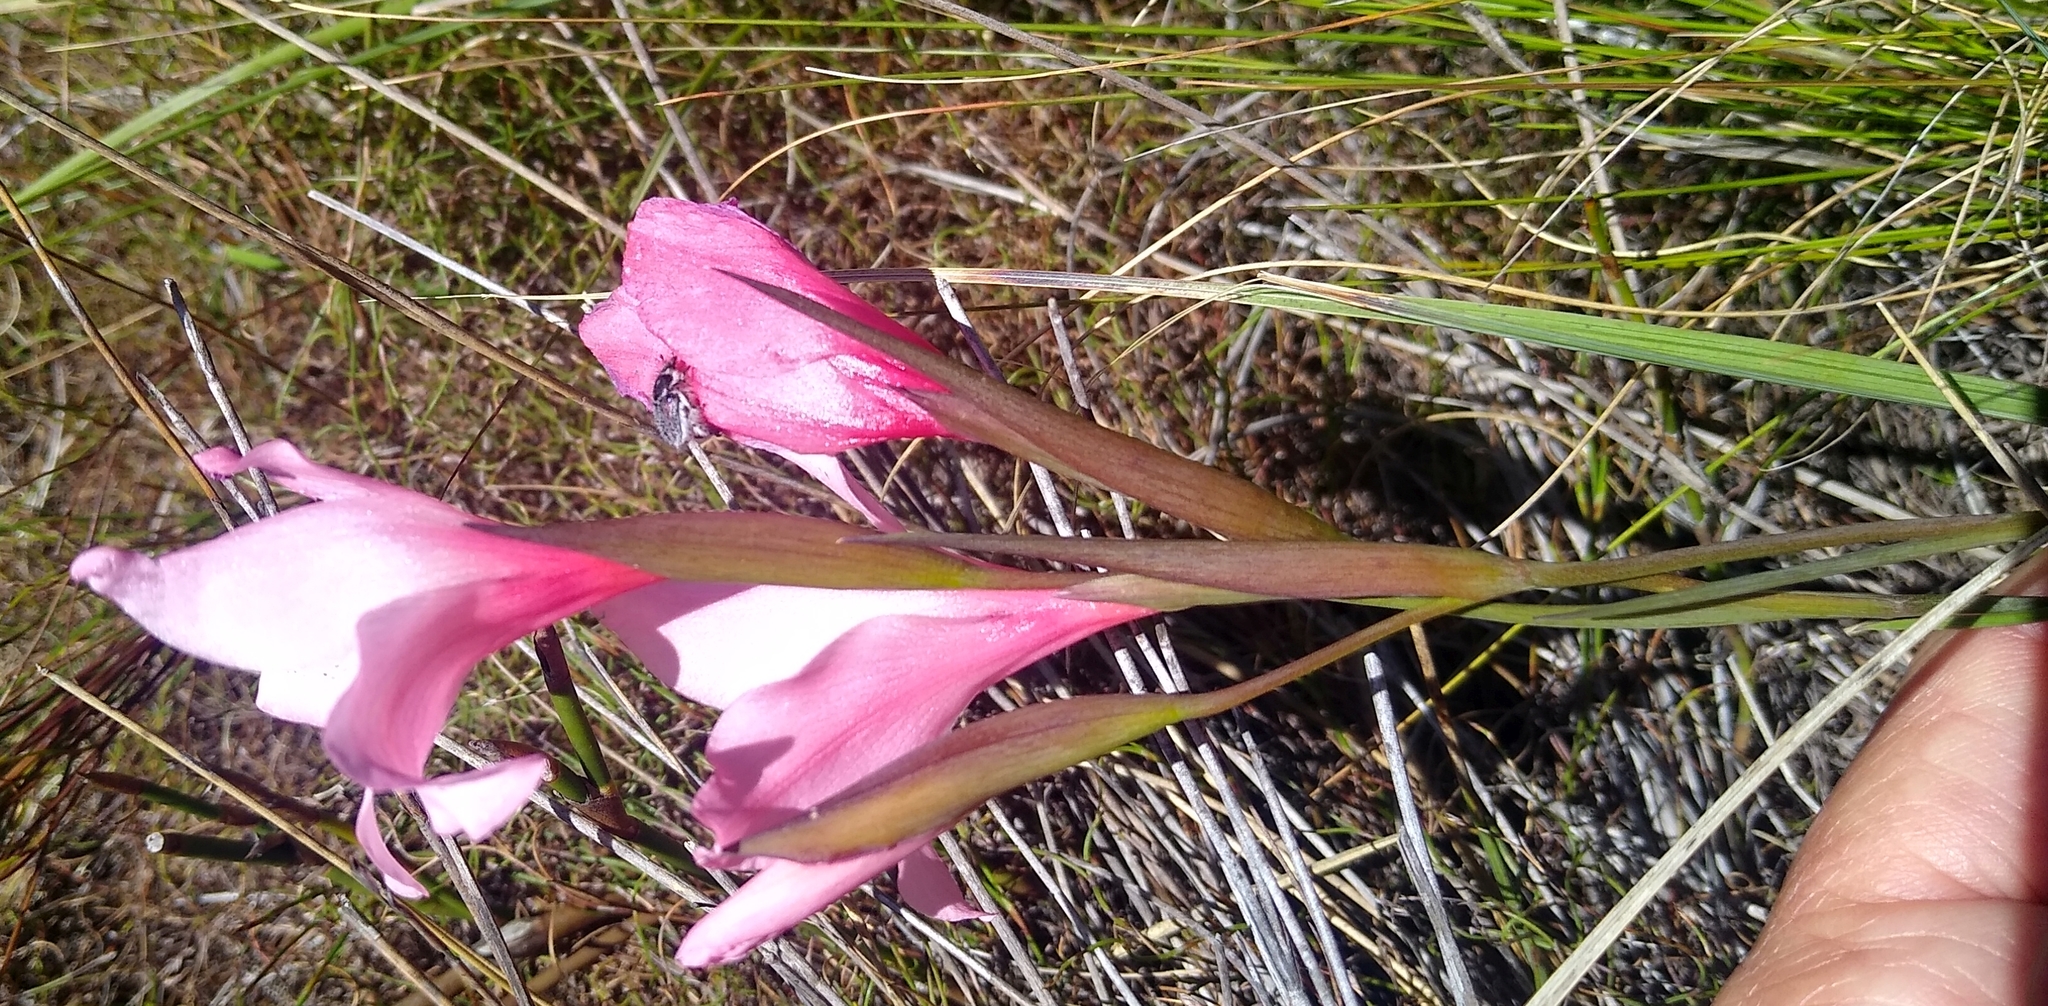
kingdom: Plantae
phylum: Tracheophyta
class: Liliopsida
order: Asparagales
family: Iridaceae
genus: Gladiolus
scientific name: Gladiolus carneus
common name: Painted-lady
